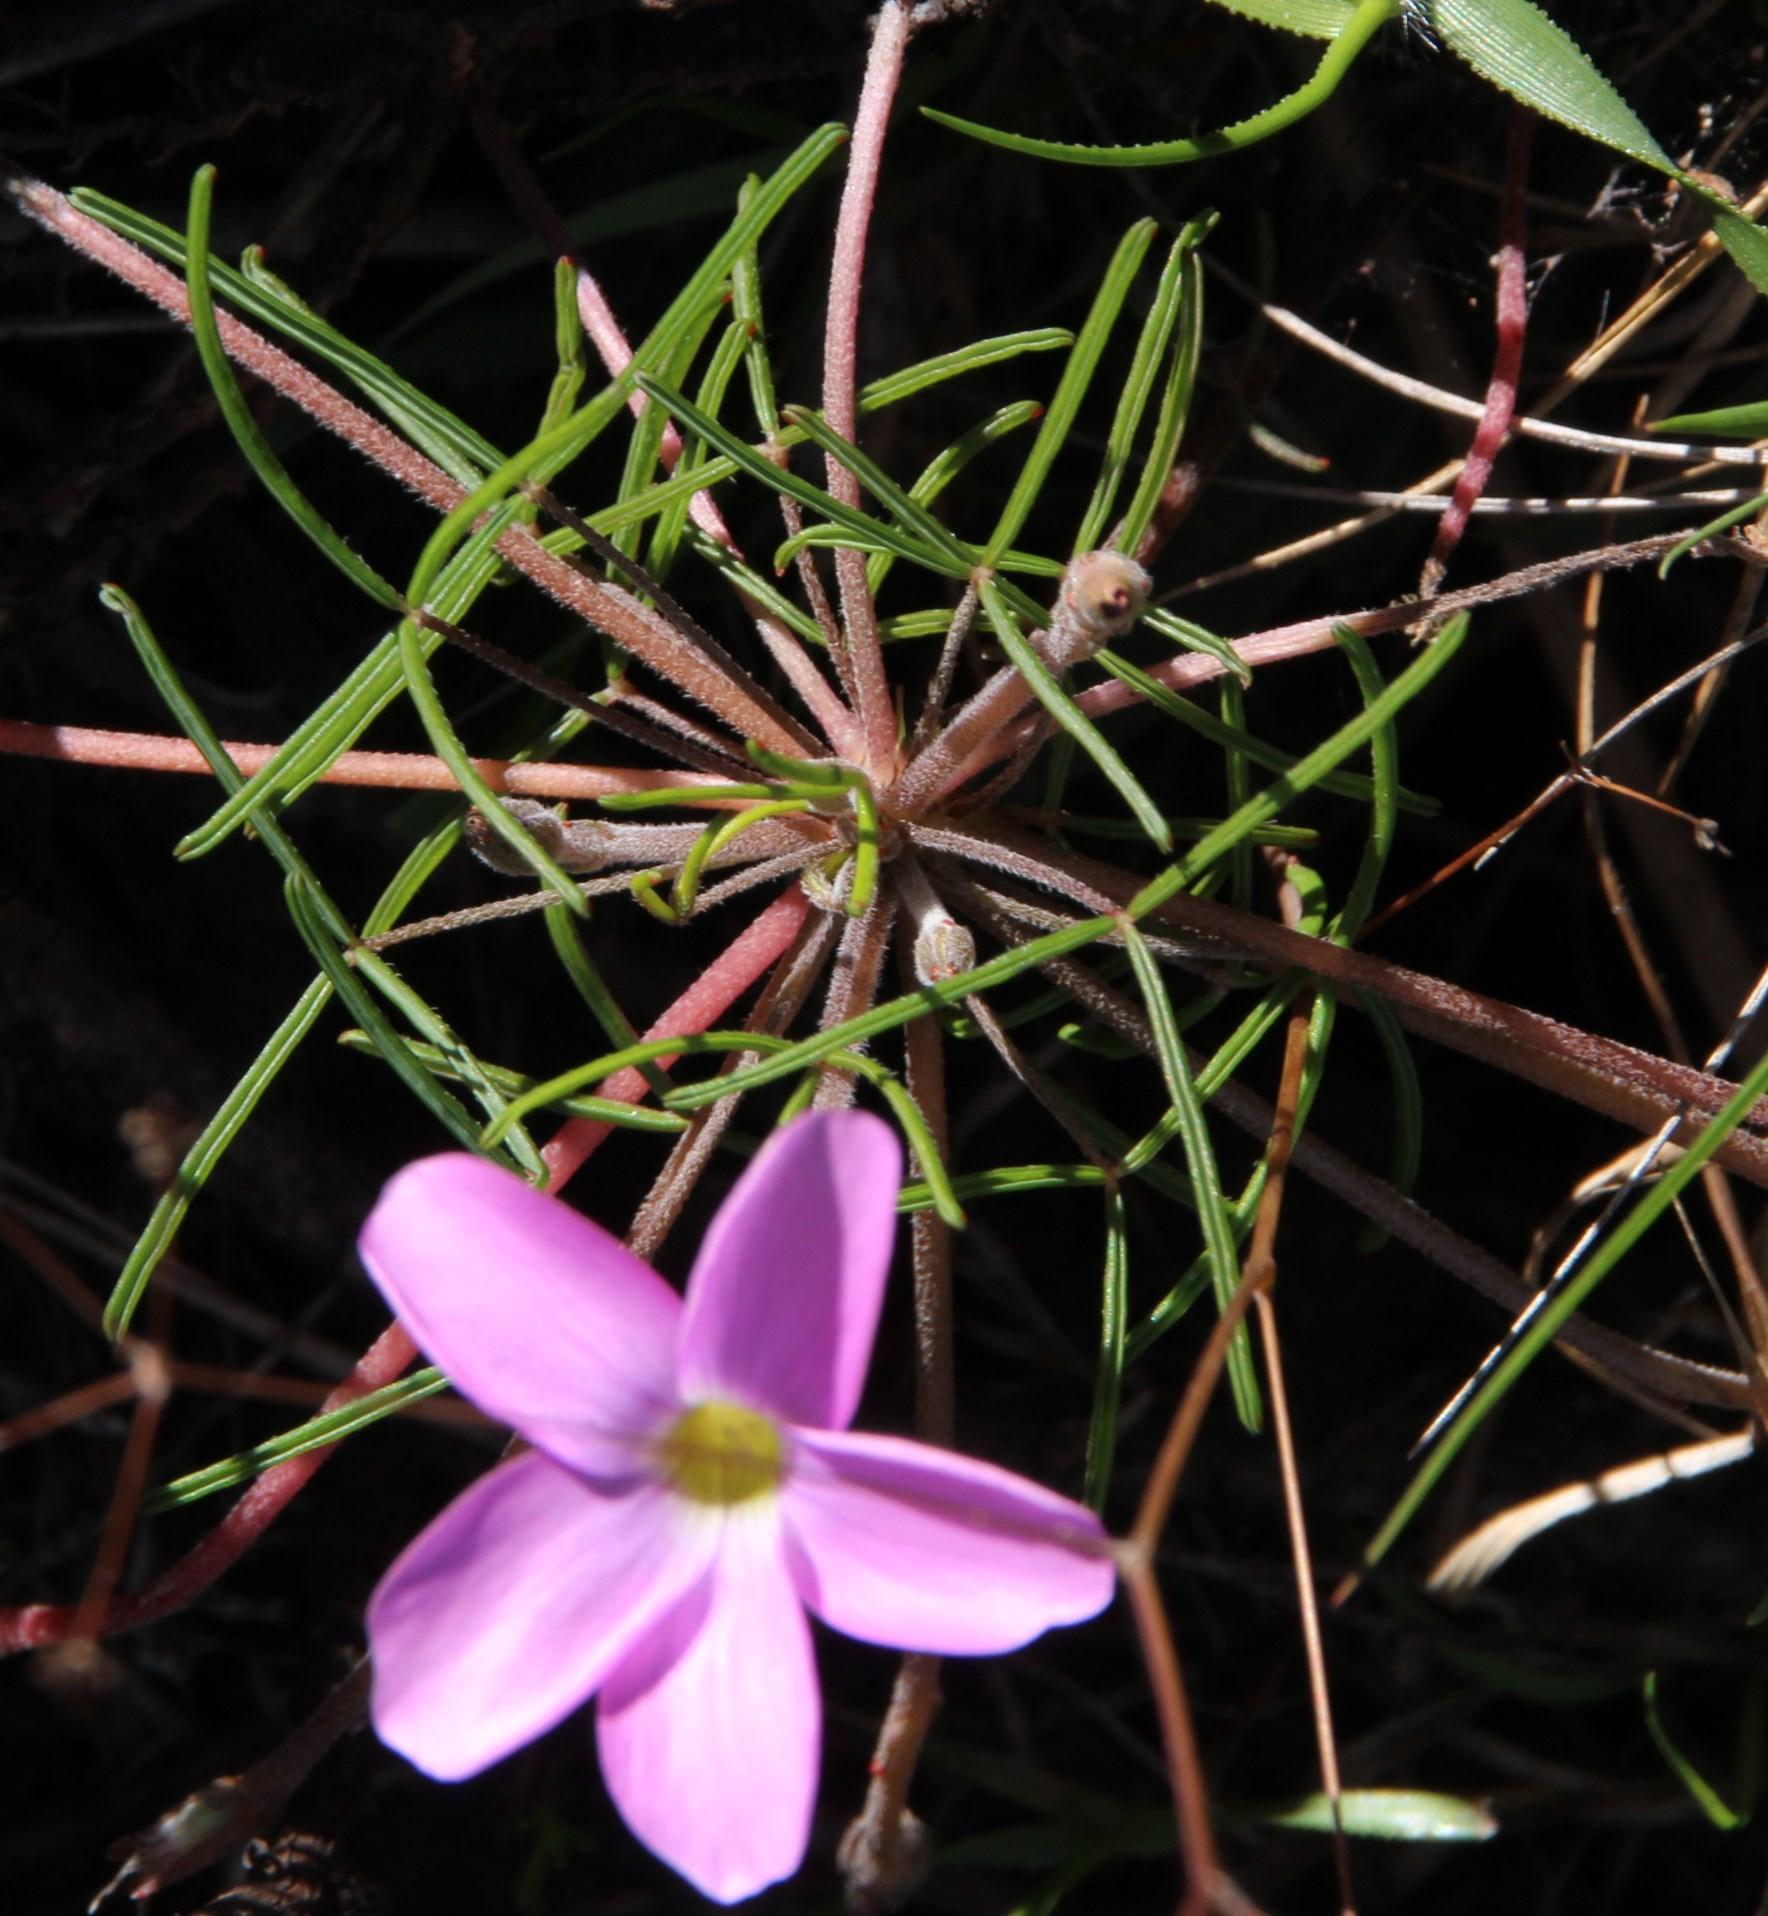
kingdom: Plantae
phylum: Tracheophyta
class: Magnoliopsida
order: Oxalidales
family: Oxalidaceae
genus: Oxalis
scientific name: Oxalis polyphylla
